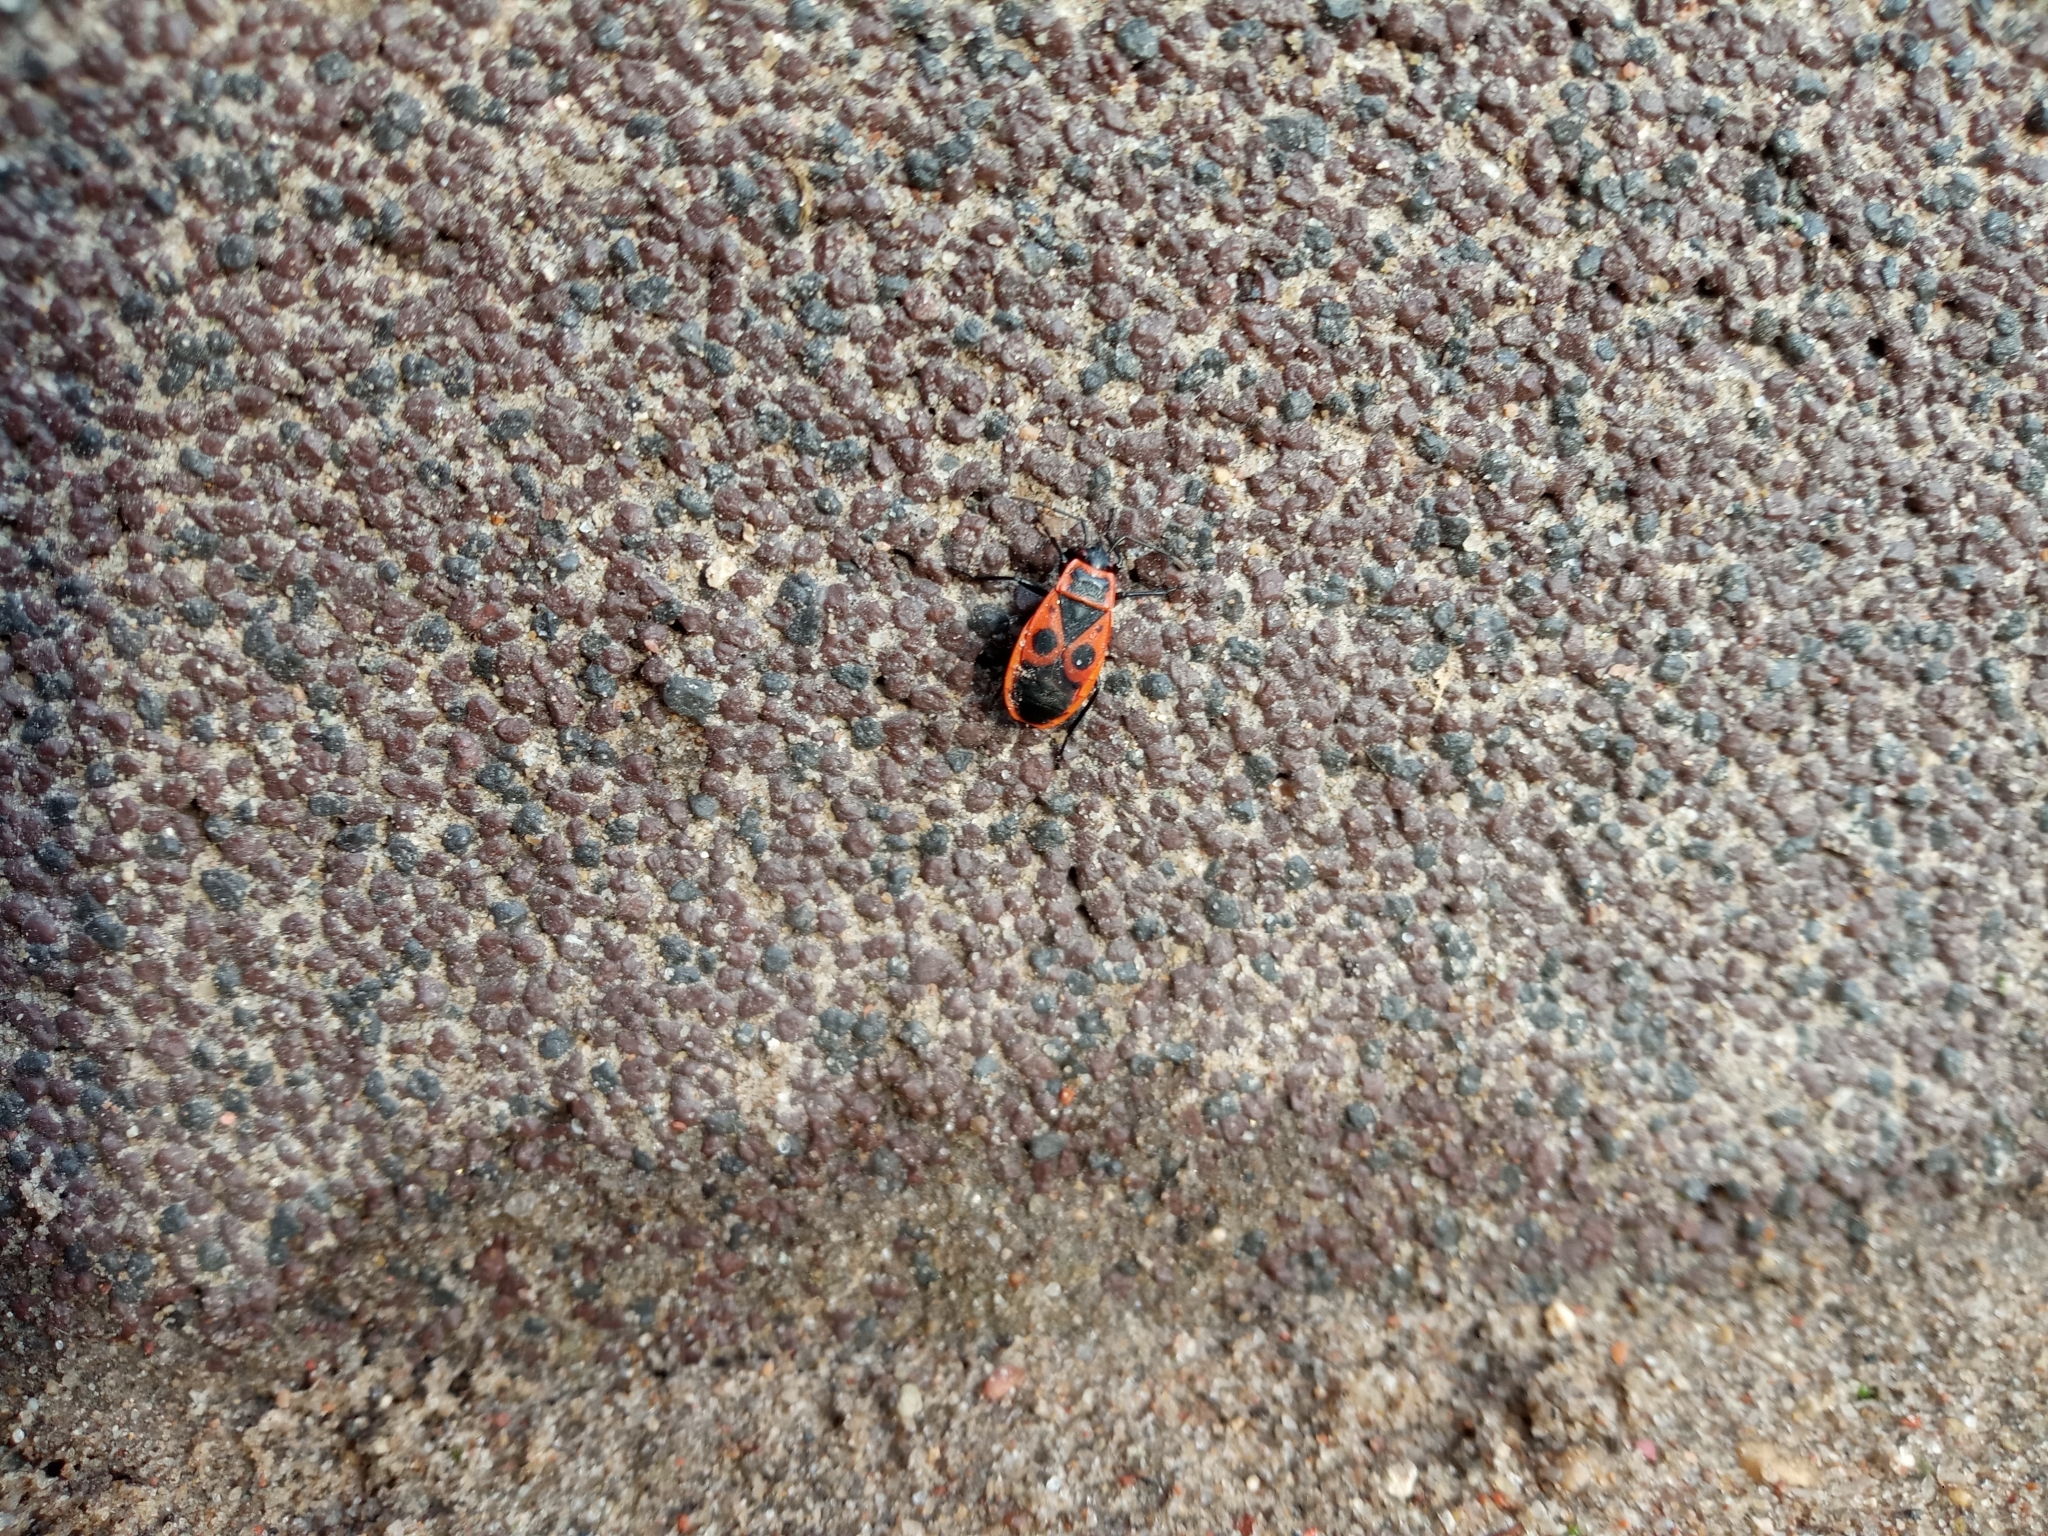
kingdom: Animalia
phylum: Arthropoda
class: Insecta
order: Hemiptera
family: Pyrrhocoridae
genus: Pyrrhocoris
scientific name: Pyrrhocoris apterus
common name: Firebug
